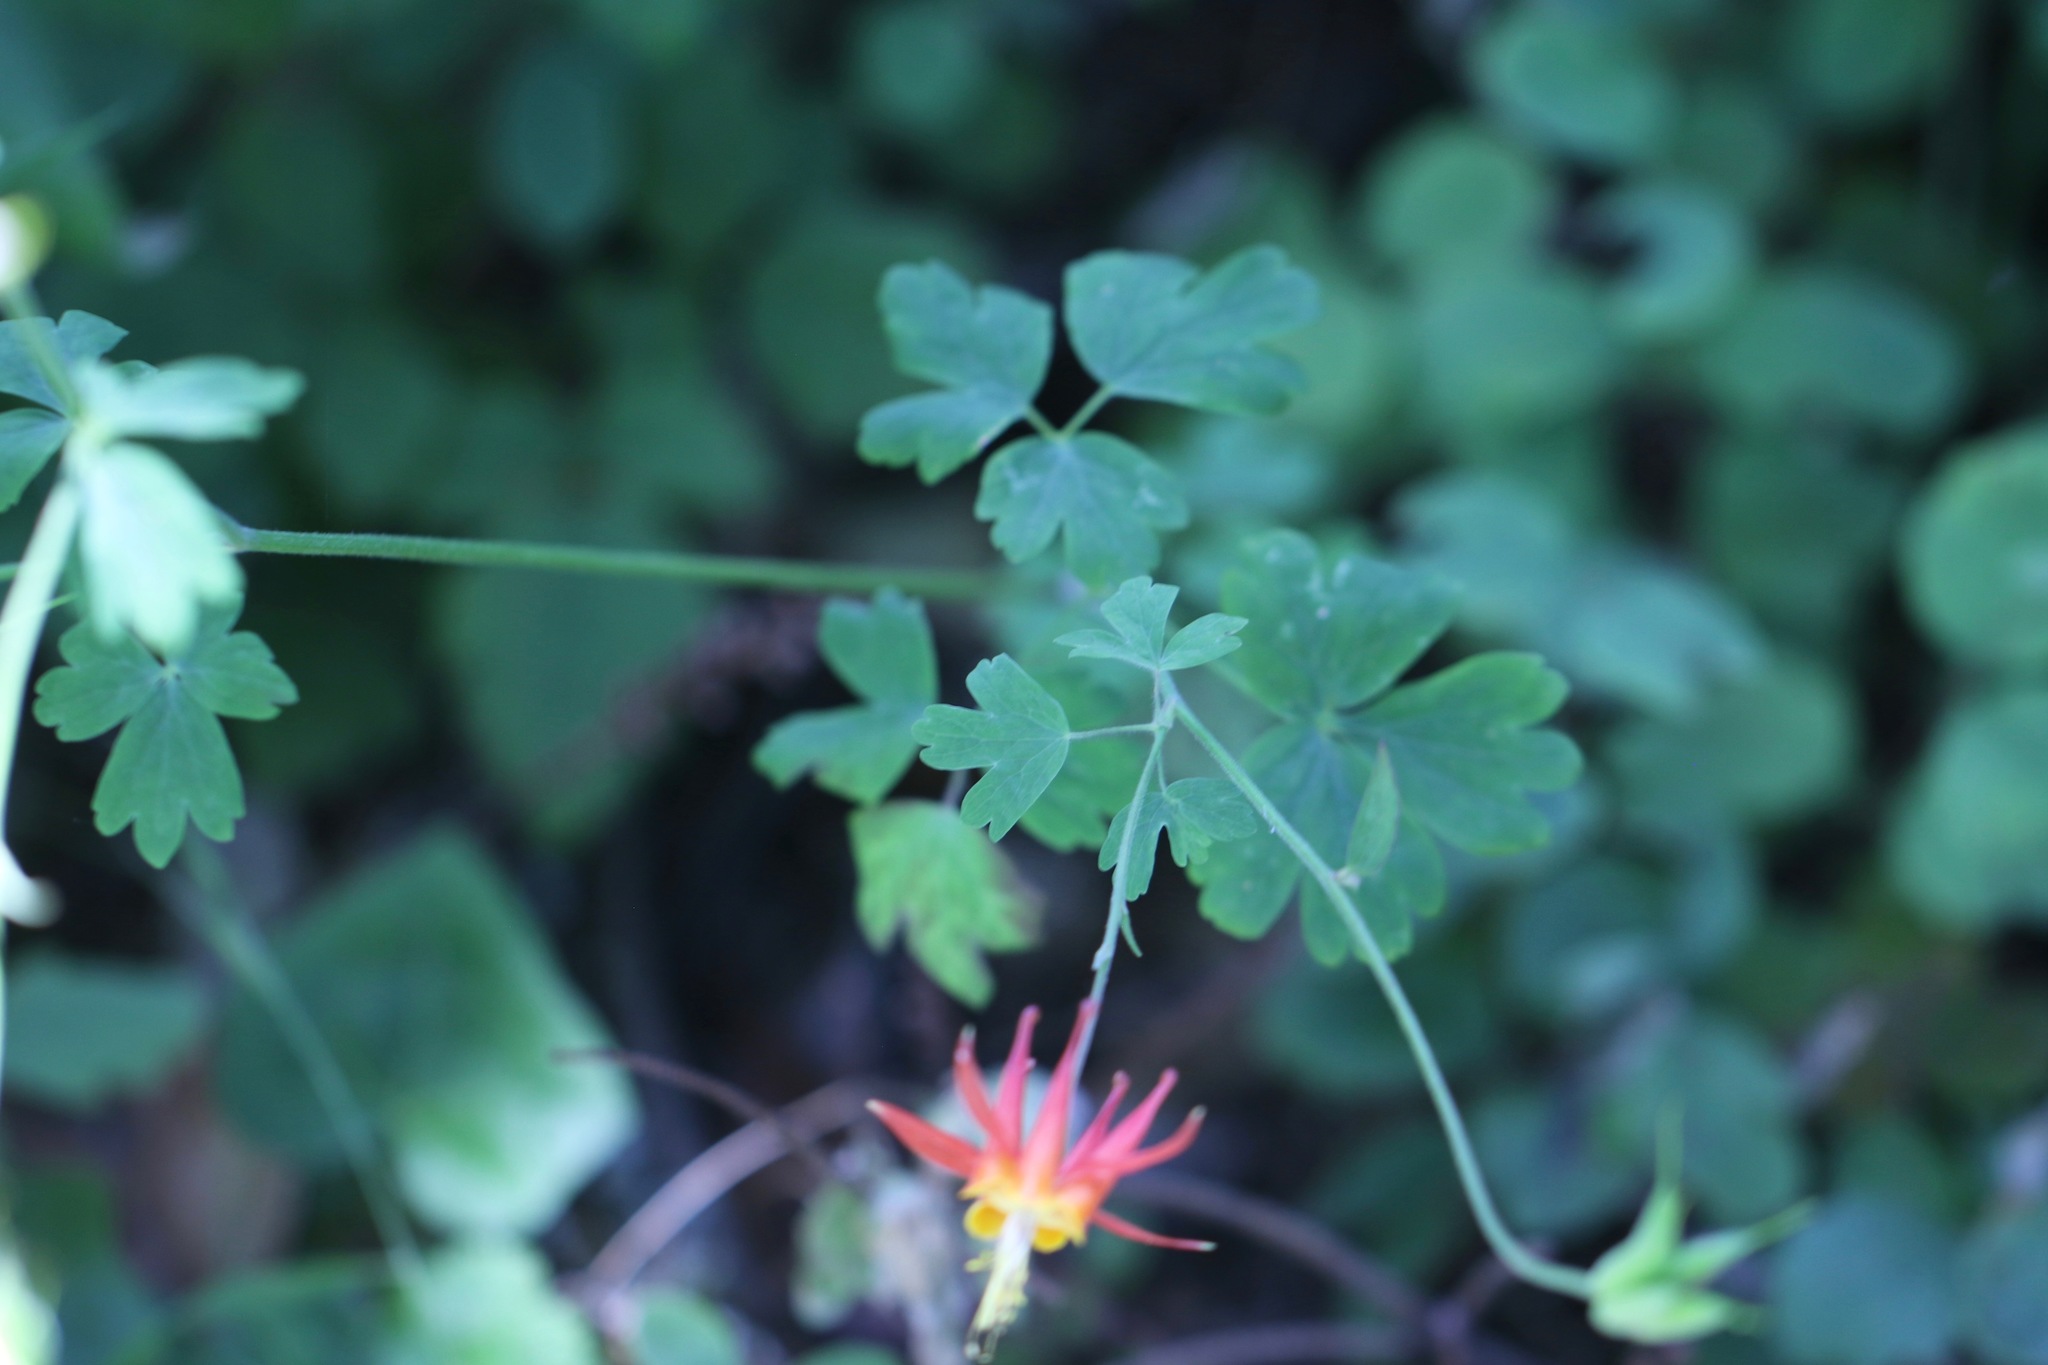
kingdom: Plantae
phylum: Tracheophyta
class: Magnoliopsida
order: Ranunculales
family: Ranunculaceae
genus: Aquilegia
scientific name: Aquilegia formosa
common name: Sitka columbine
